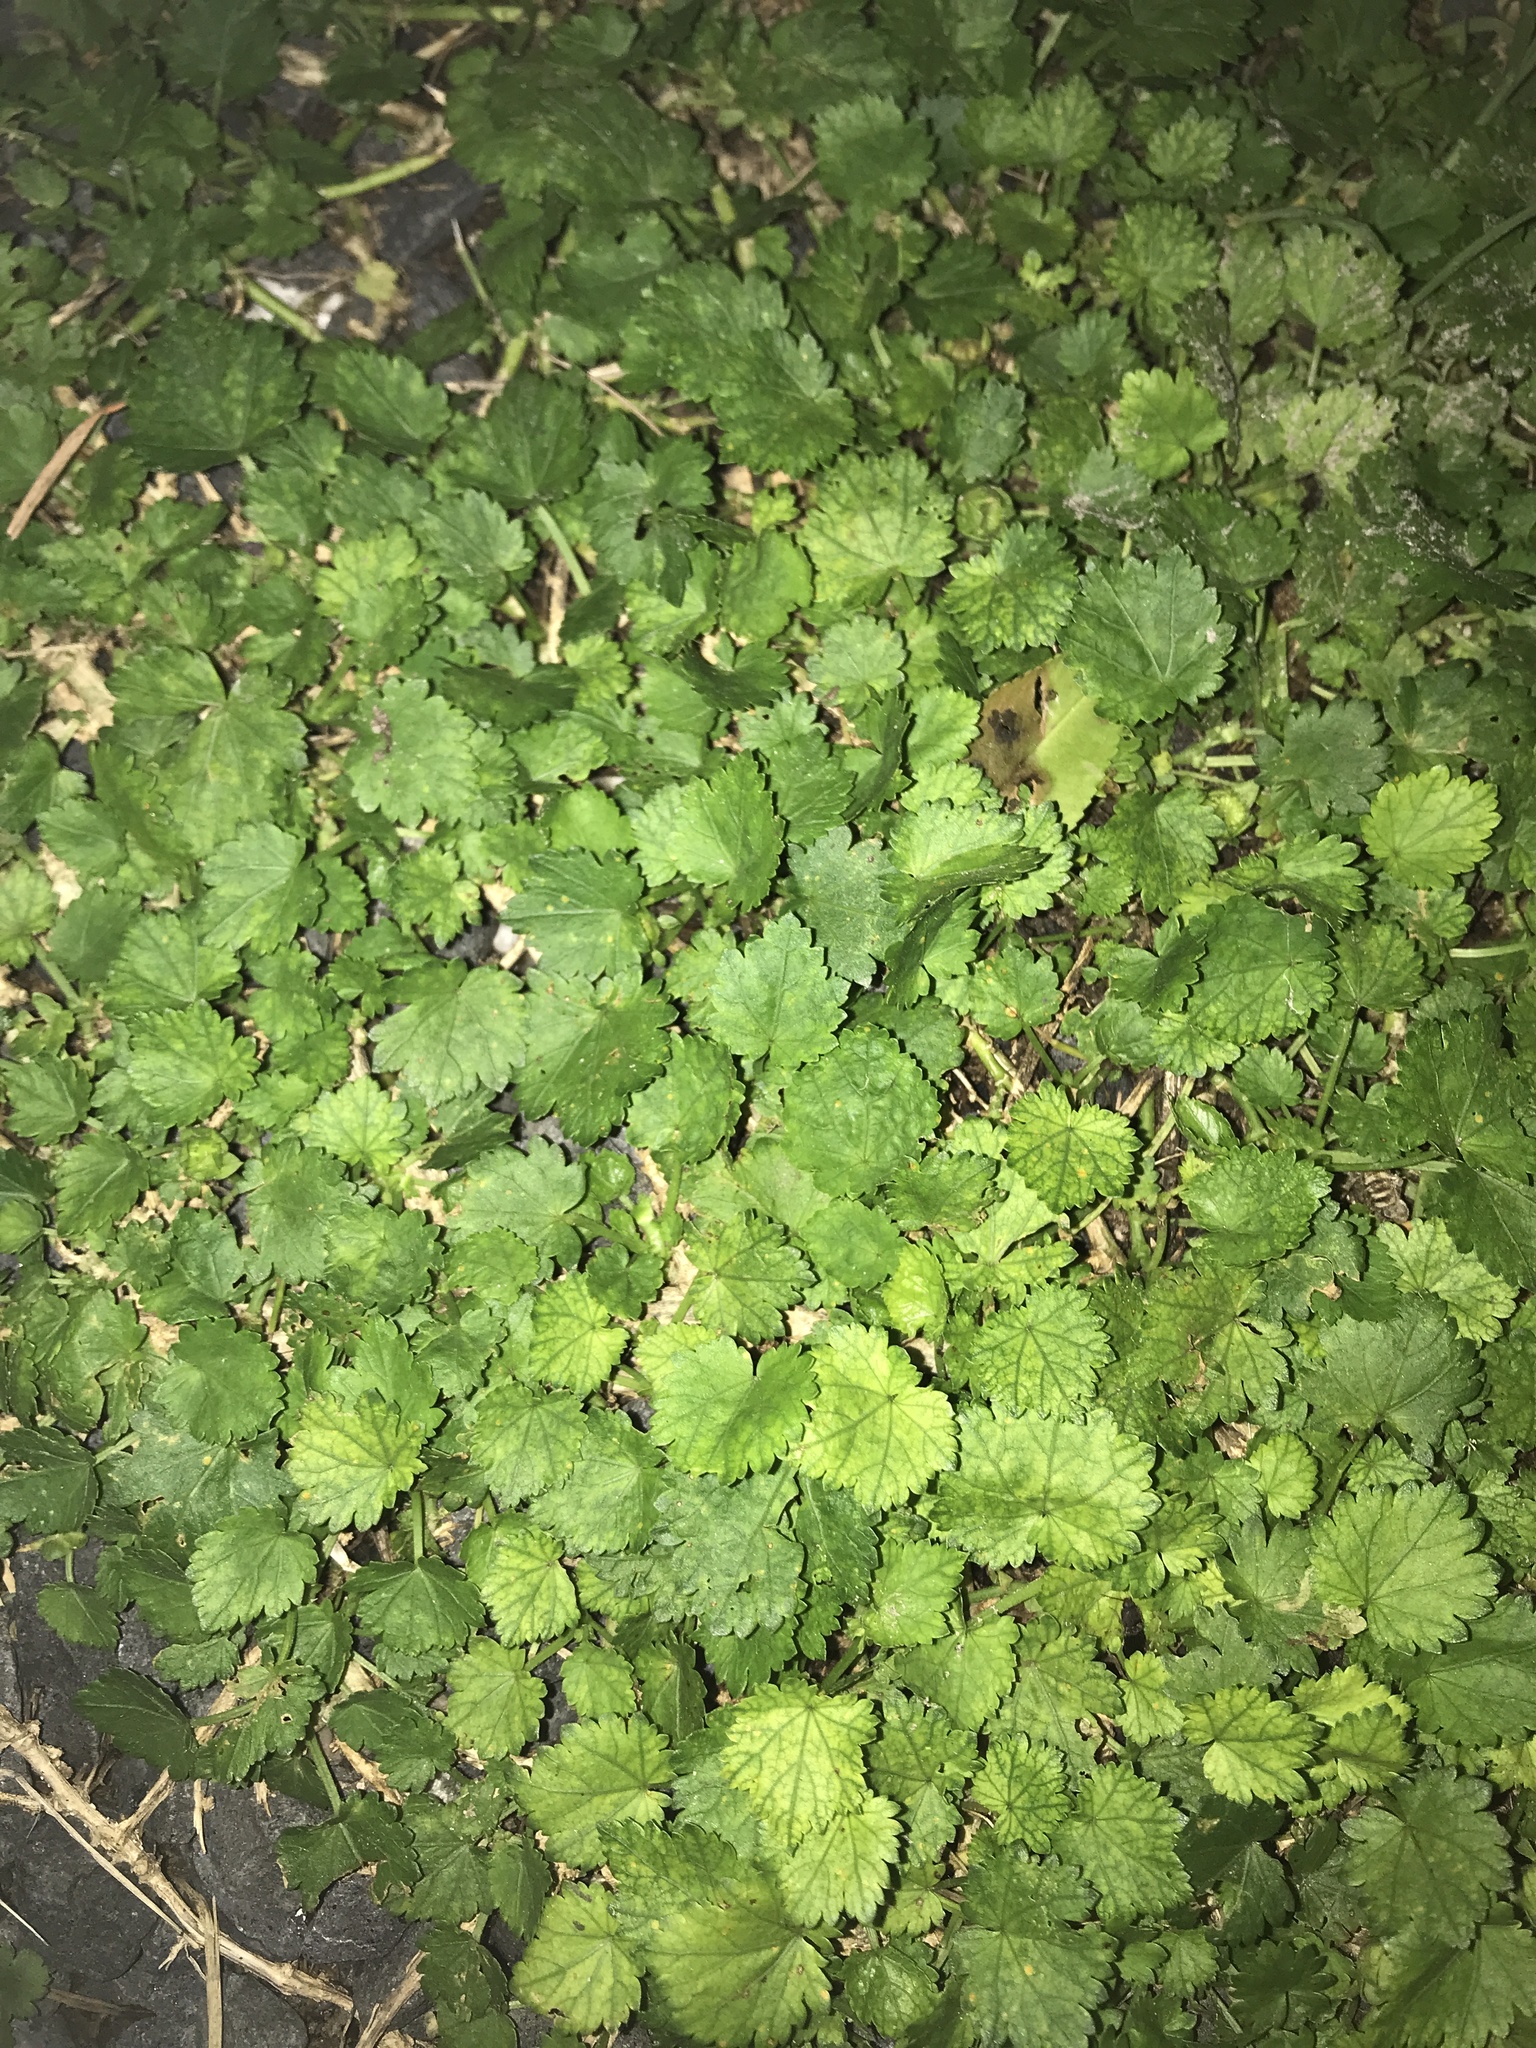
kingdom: Plantae
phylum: Tracheophyta
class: Magnoliopsida
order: Malvales
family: Malvaceae
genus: Modiola
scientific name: Modiola caroliniana
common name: Carolina bristlemallow
